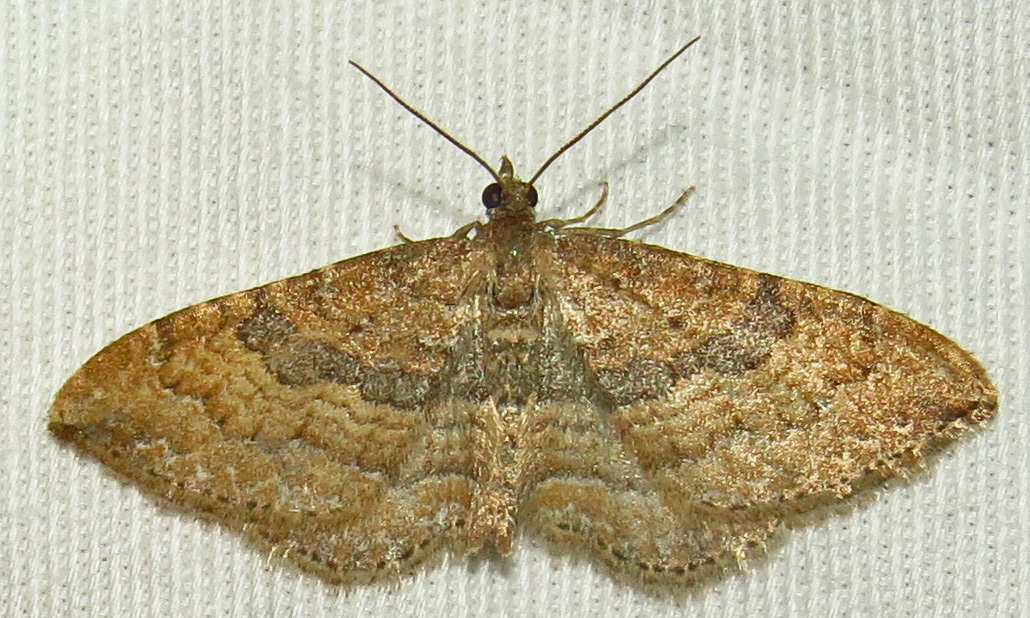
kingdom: Animalia
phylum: Arthropoda
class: Insecta
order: Lepidoptera
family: Geometridae
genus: Orthonama
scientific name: Orthonama obstipata
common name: The gem
